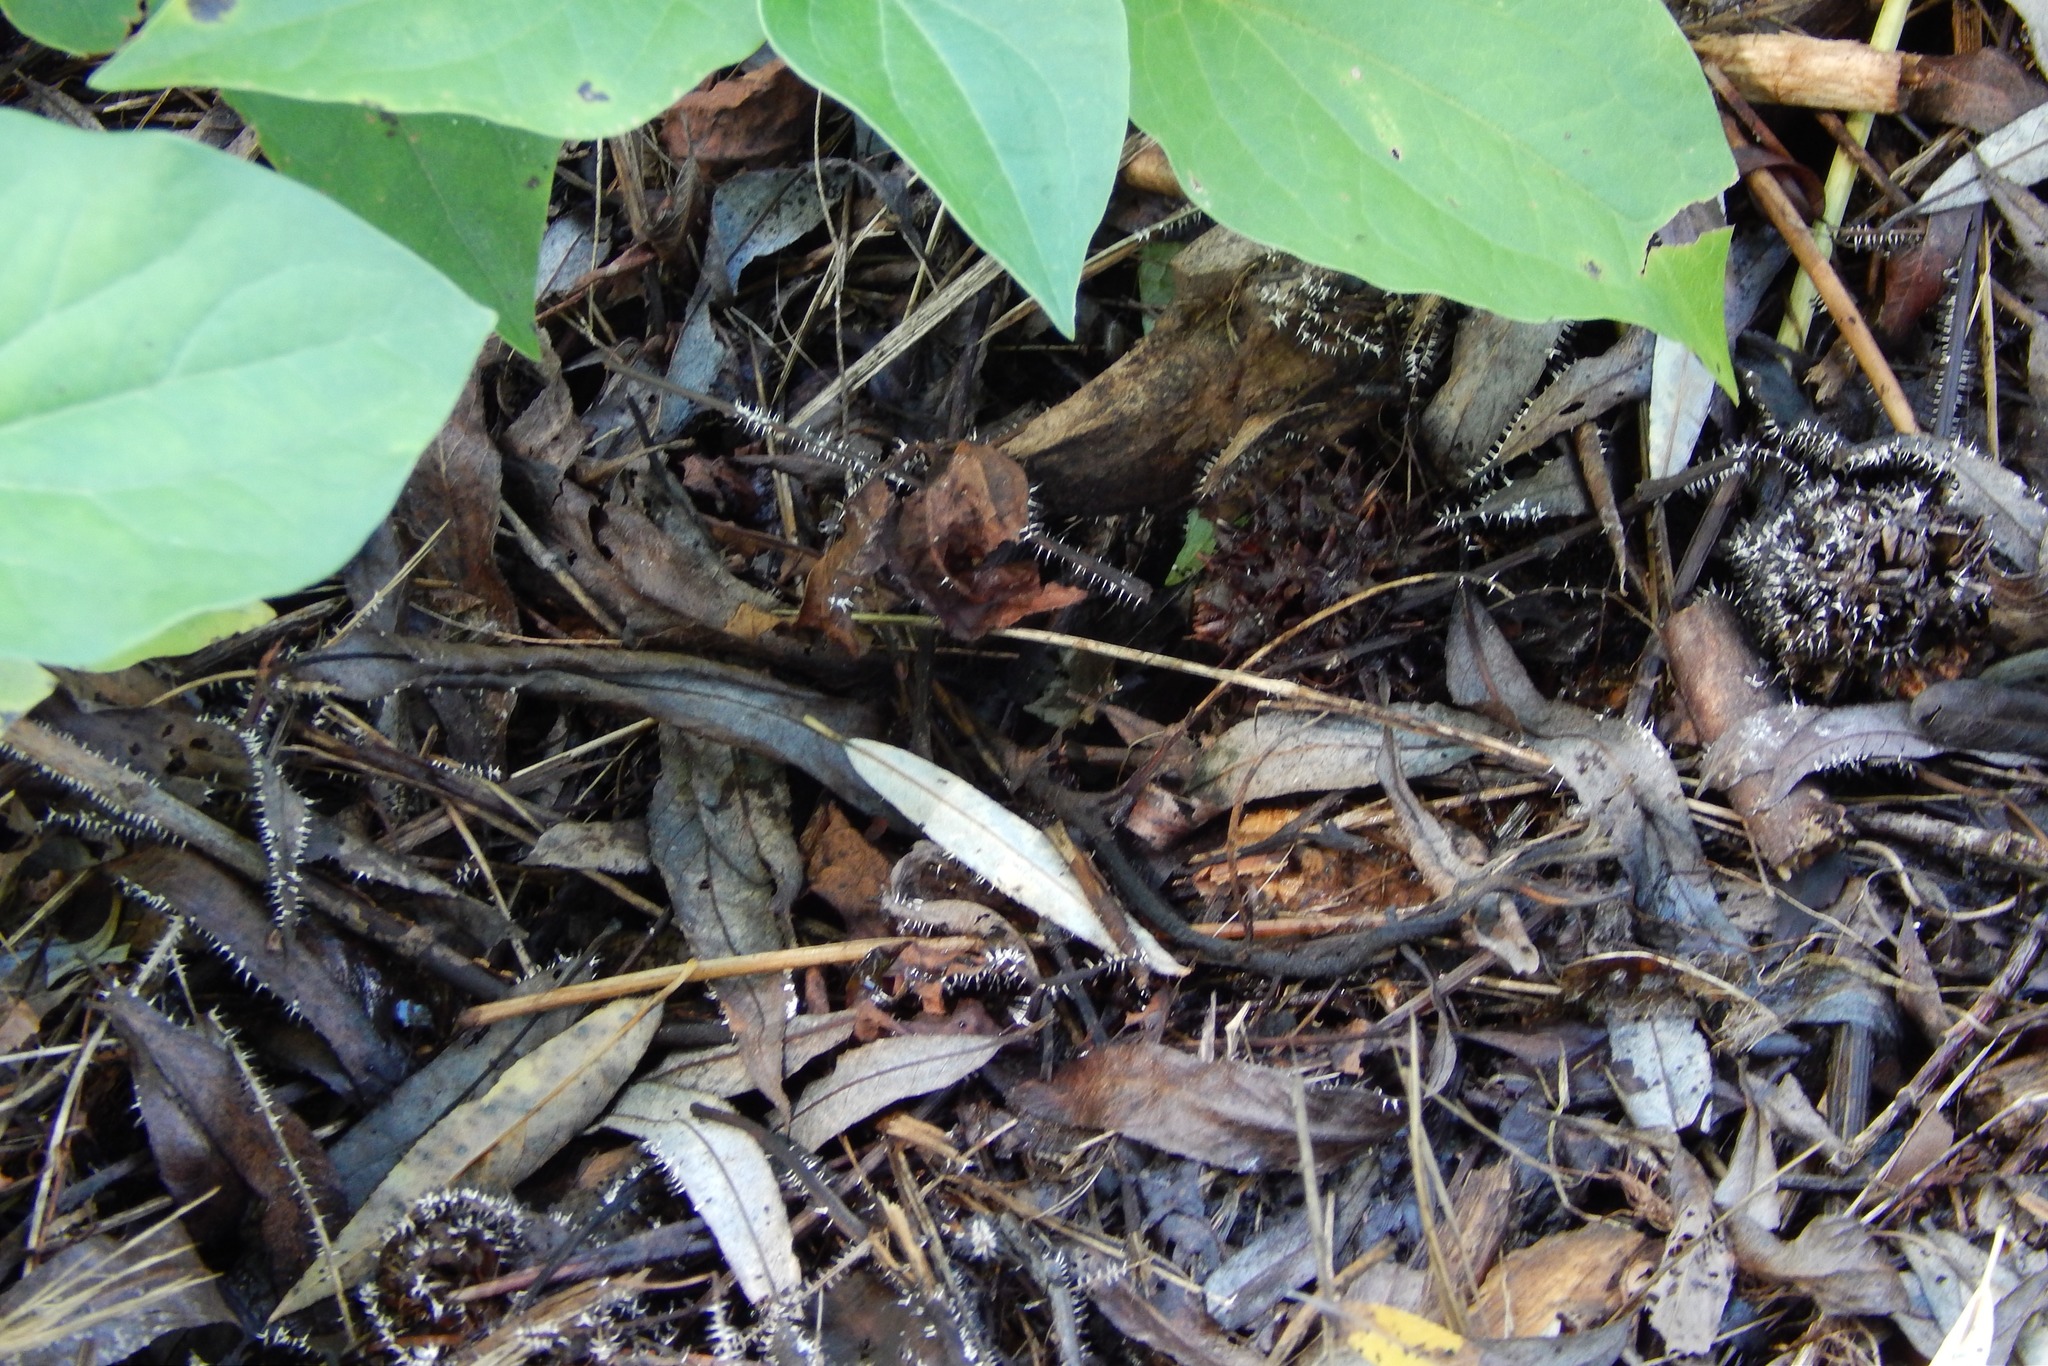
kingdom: Protozoa
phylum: Mycetozoa
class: Myxomycetes
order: Physarales
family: Didymiaceae
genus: Diachea
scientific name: Diachea leucopodia
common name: White-footed slime
